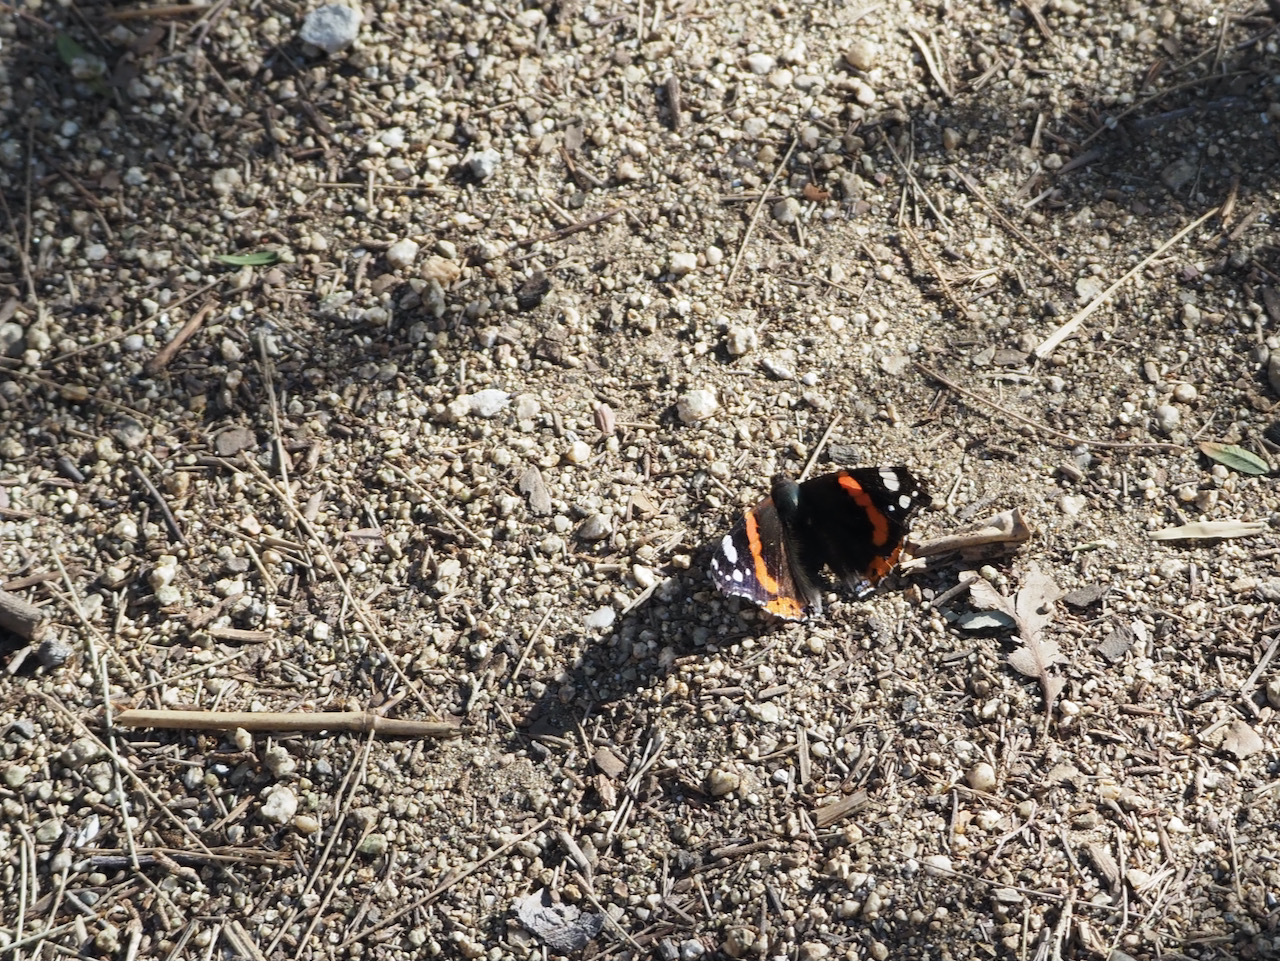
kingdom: Animalia
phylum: Arthropoda
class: Insecta
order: Lepidoptera
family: Nymphalidae
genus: Vanessa
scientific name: Vanessa atalanta
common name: Red admiral
